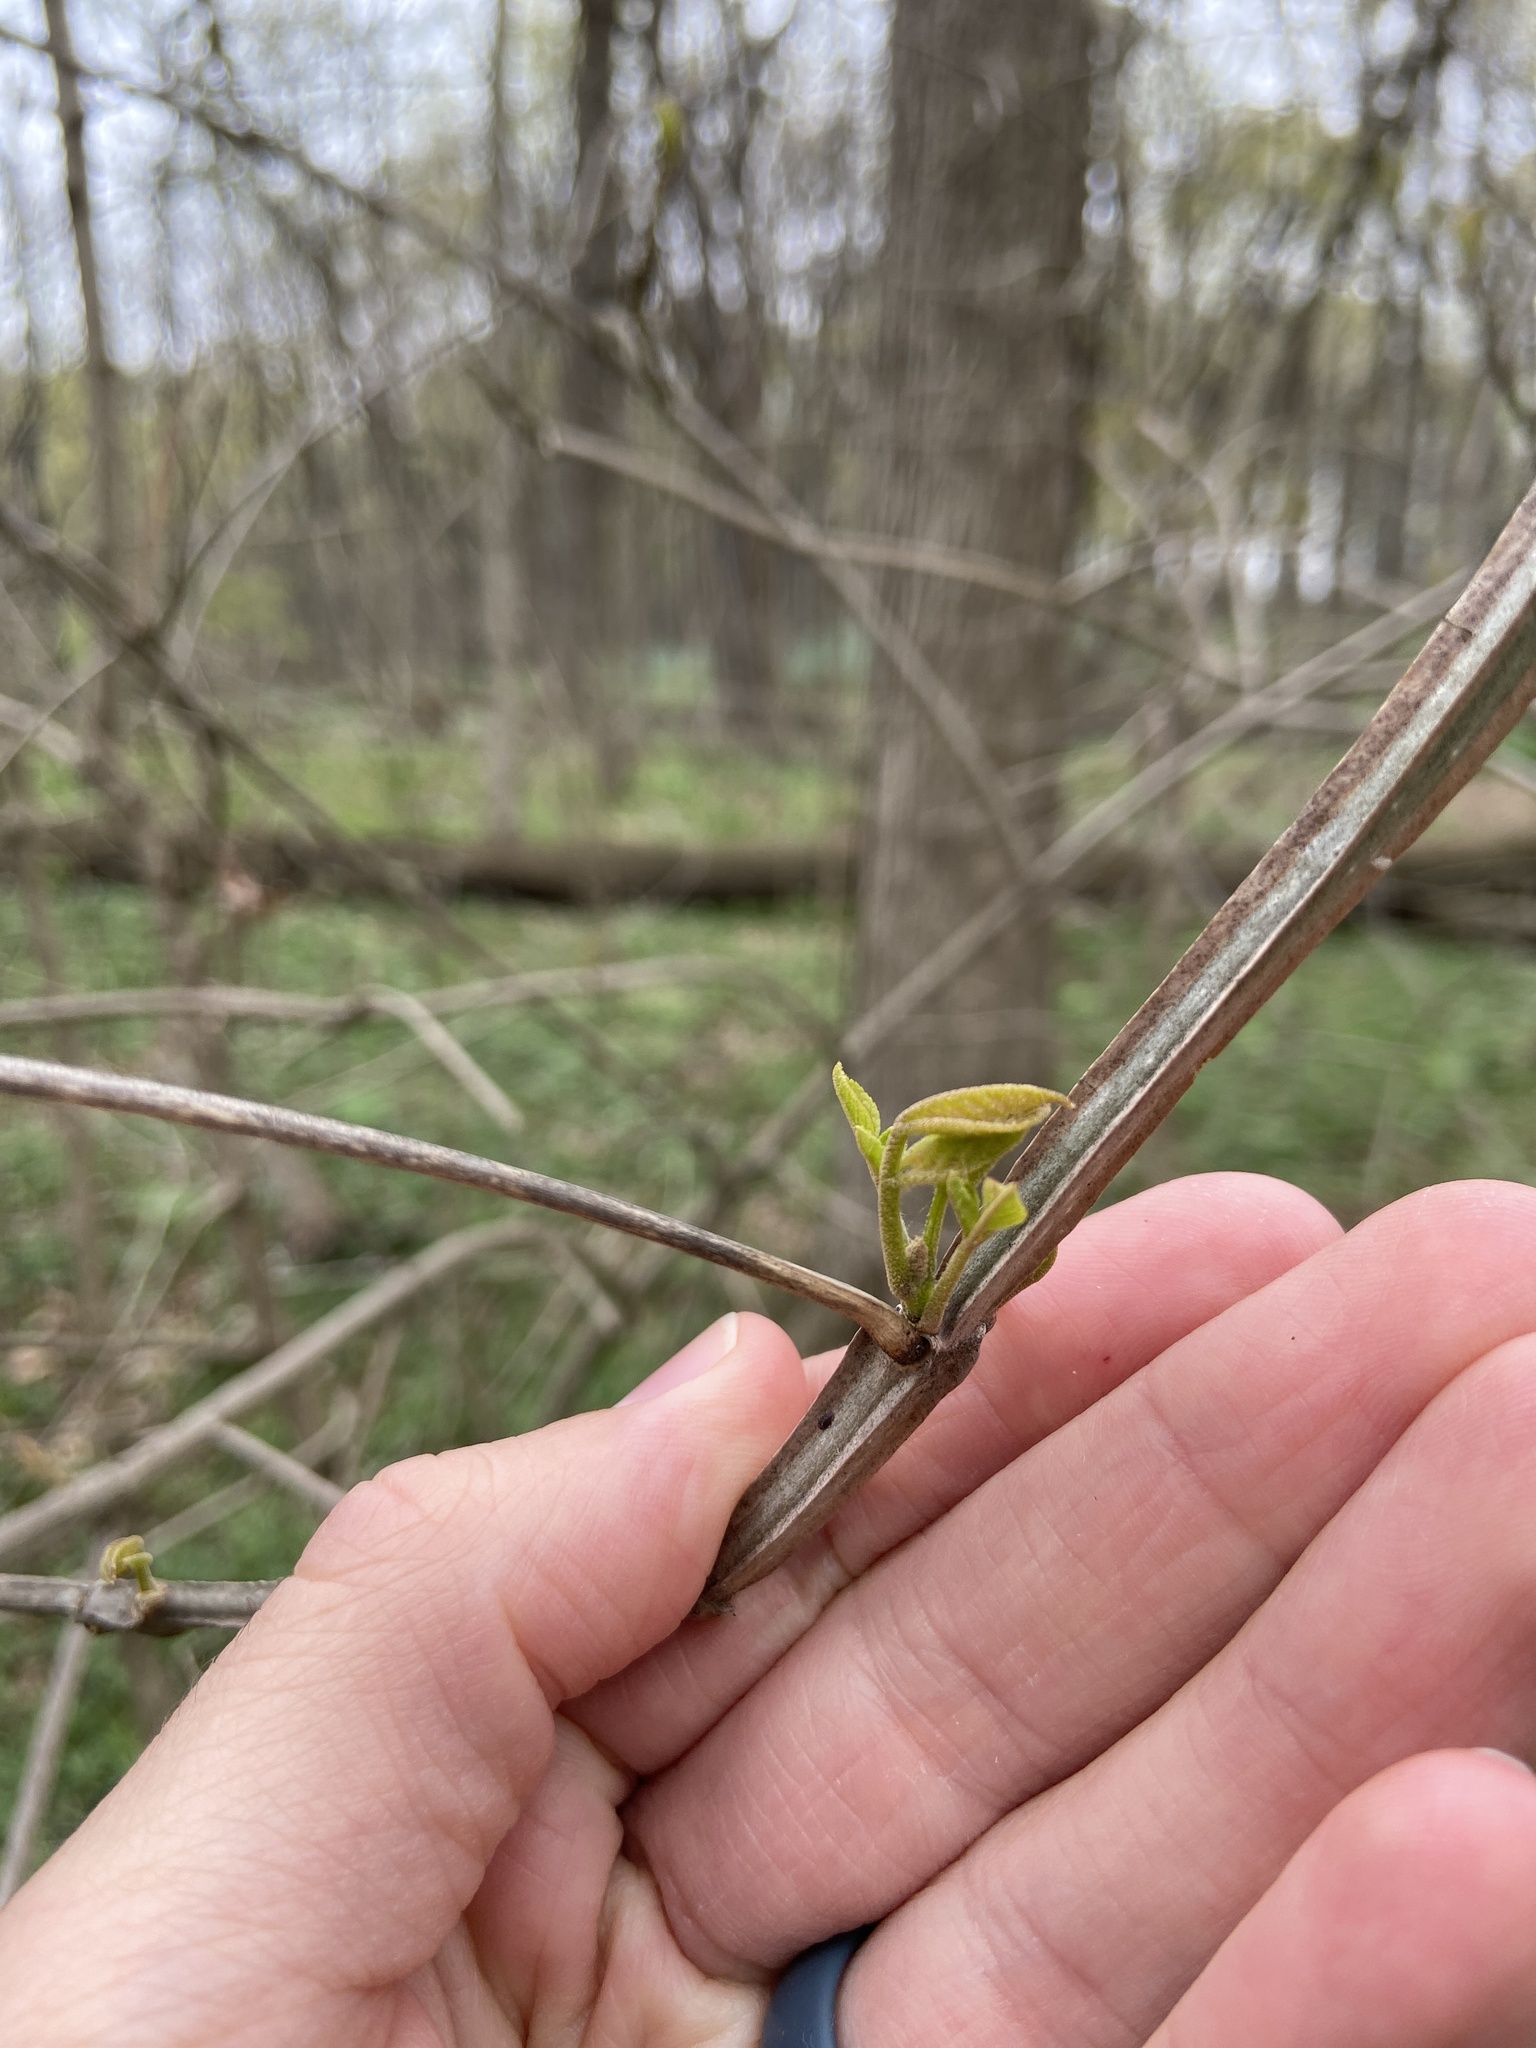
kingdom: Plantae
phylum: Tracheophyta
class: Magnoliopsida
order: Lamiales
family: Oleaceae
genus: Fraxinus
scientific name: Fraxinus quadrangulata
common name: Blue ash
